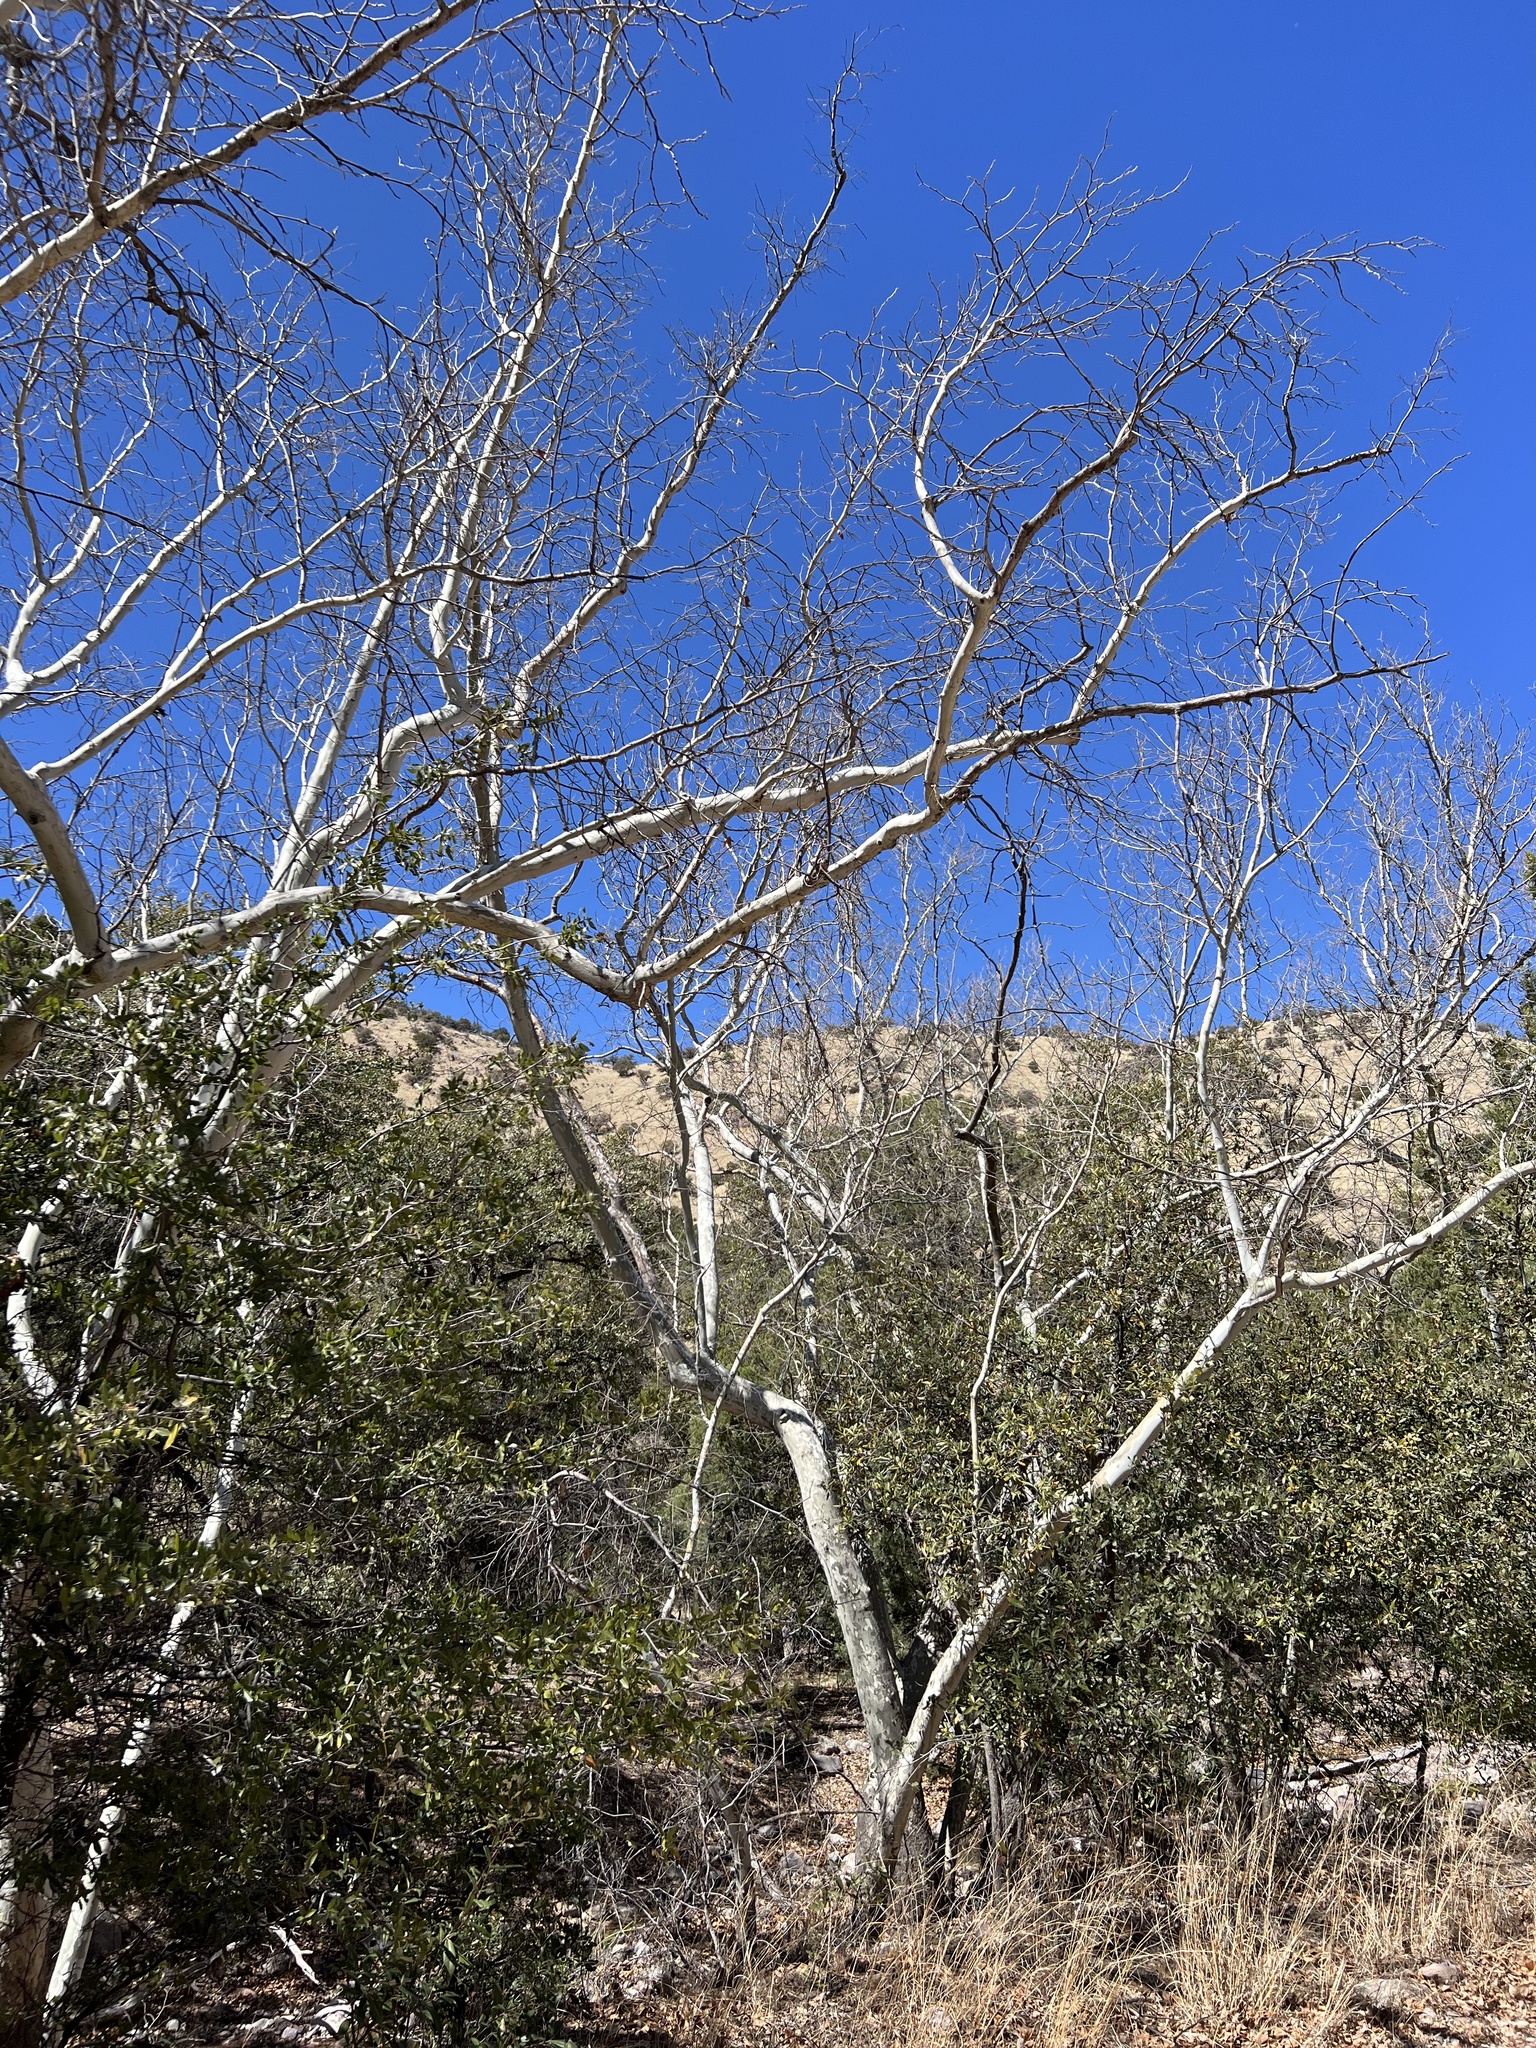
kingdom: Plantae
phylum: Tracheophyta
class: Magnoliopsida
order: Proteales
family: Platanaceae
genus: Platanus
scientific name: Platanus wrightii
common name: Arizona sycamore
